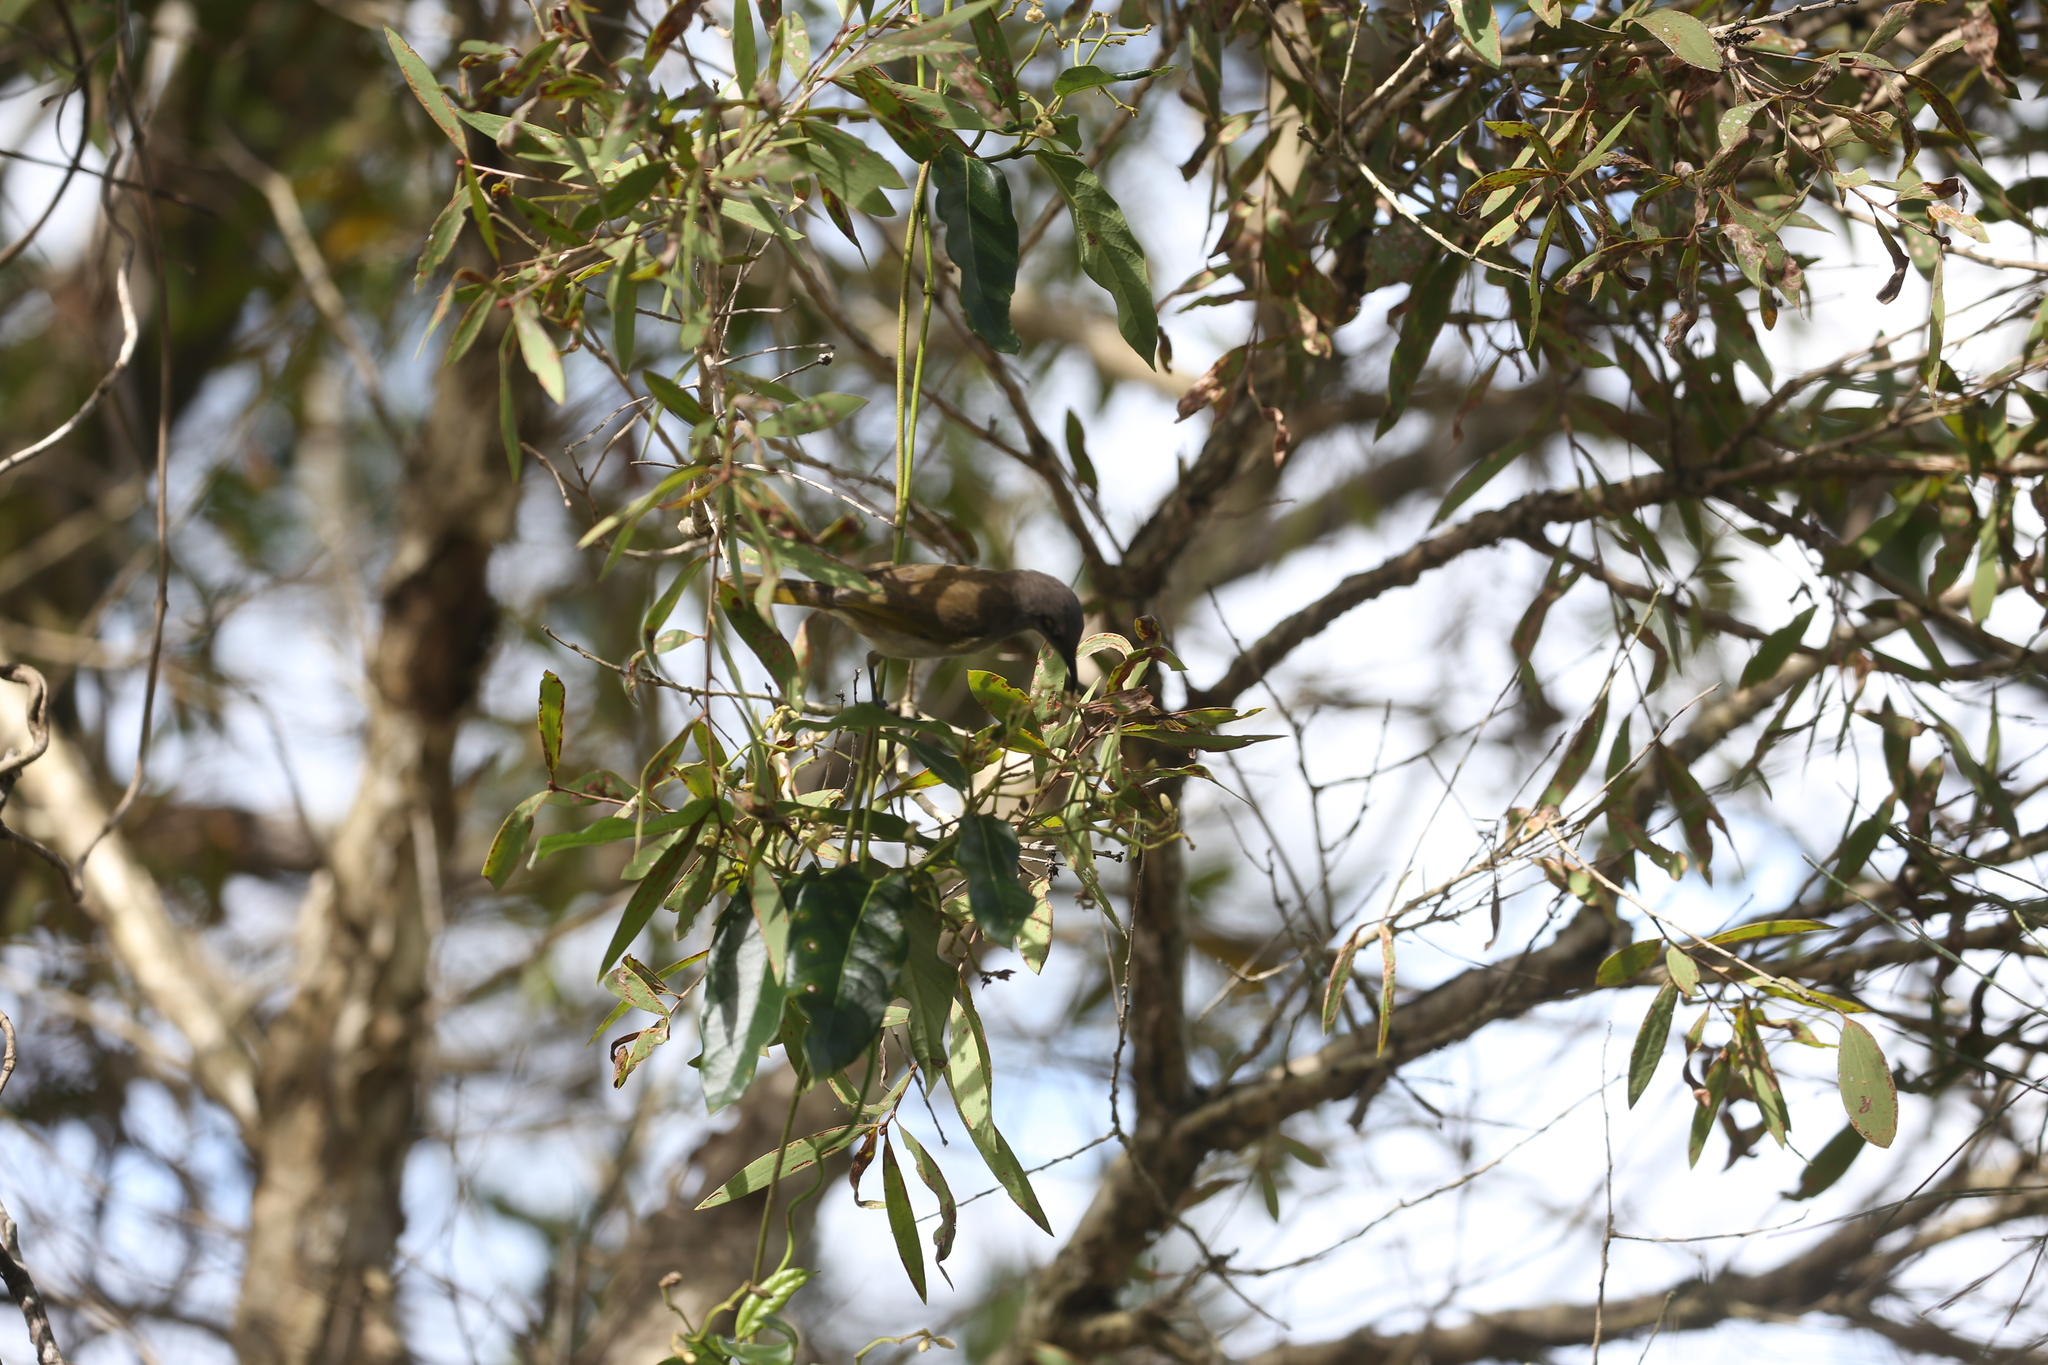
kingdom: Animalia
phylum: Chordata
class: Aves
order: Passeriformes
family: Meliphagidae
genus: Lichmera
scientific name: Lichmera indistincta
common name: Brown honeyeater
